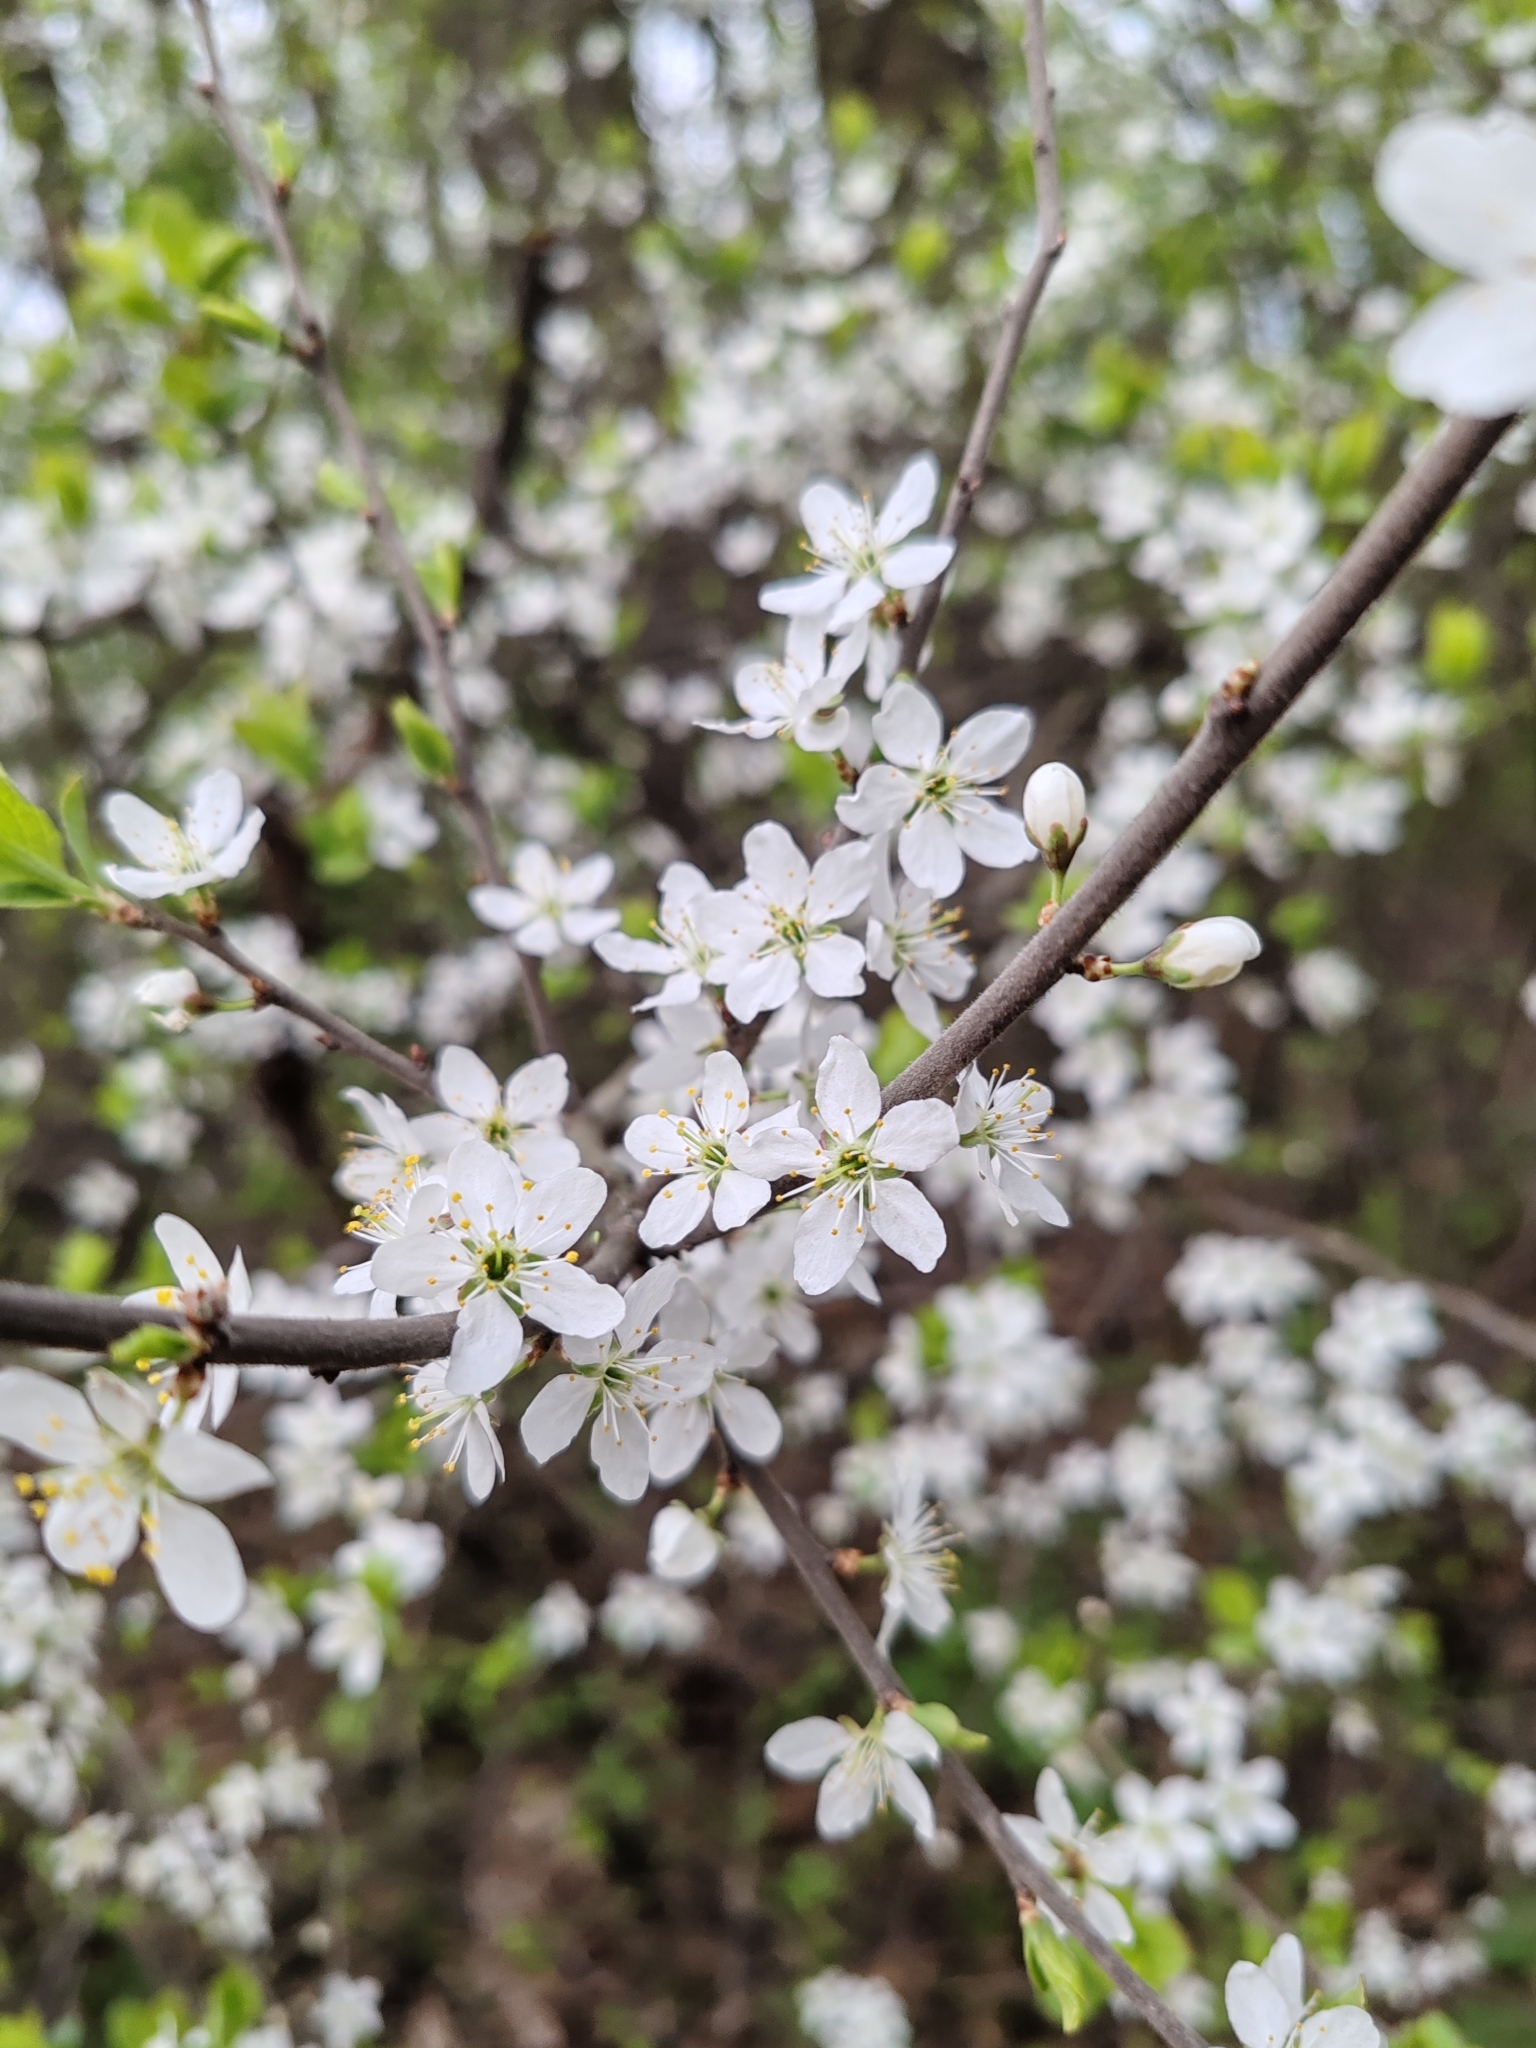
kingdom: Plantae
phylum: Tracheophyta
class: Magnoliopsida
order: Rosales
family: Rosaceae
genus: Prunus
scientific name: Prunus spinosa
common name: Blackthorn
